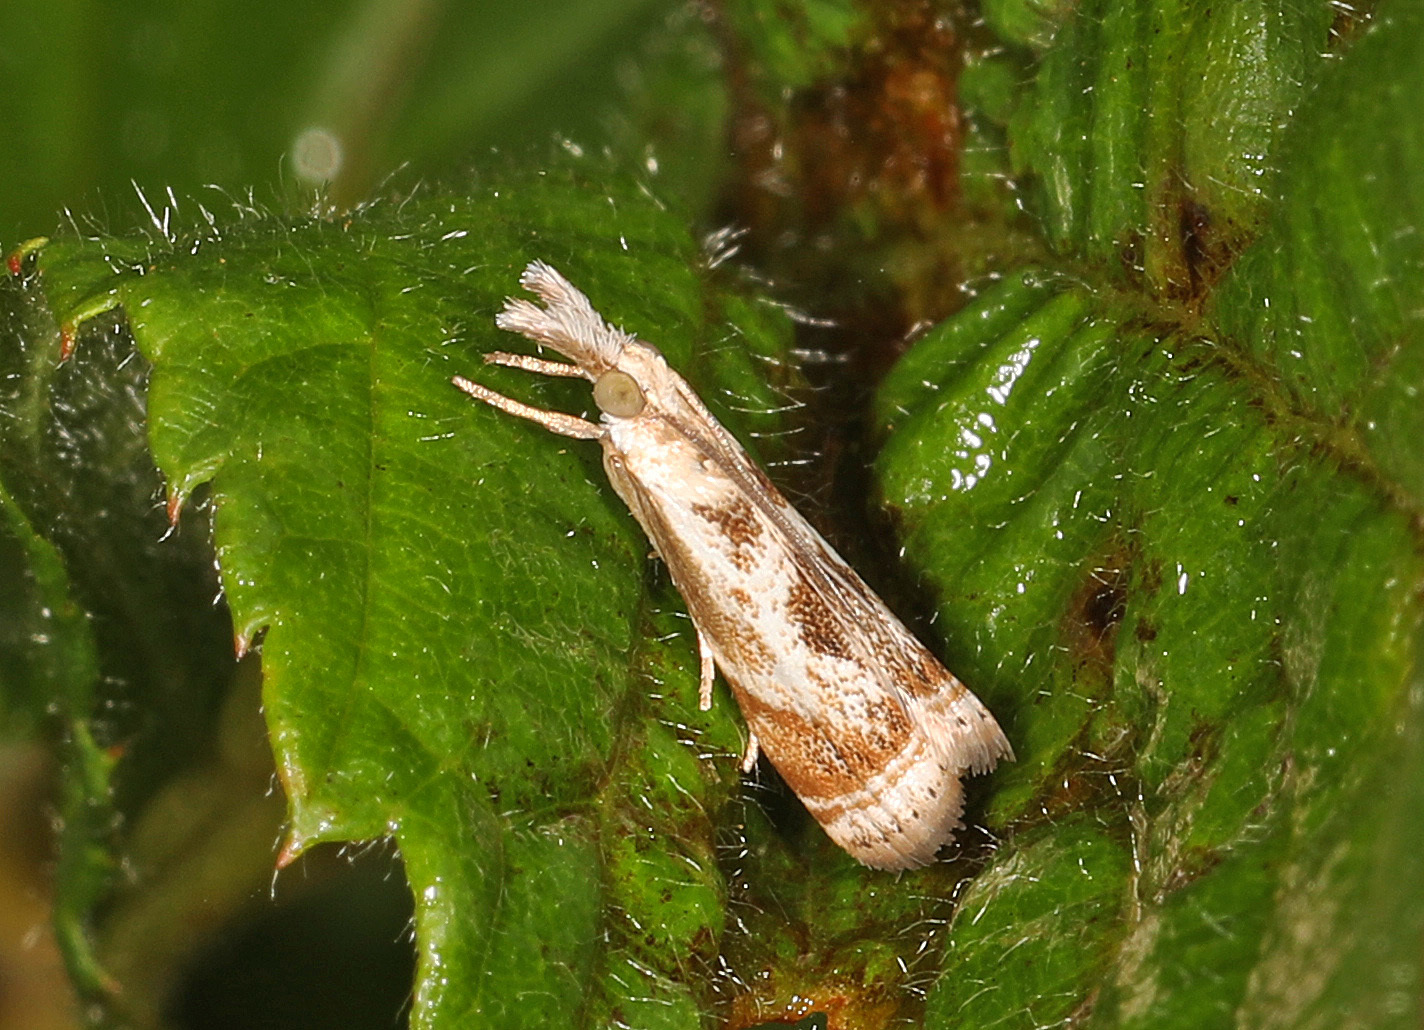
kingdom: Animalia
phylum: Arthropoda
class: Insecta
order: Lepidoptera
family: Crambidae
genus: Microcrambus
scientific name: Microcrambus elegans
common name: Elegant grass-veneer
